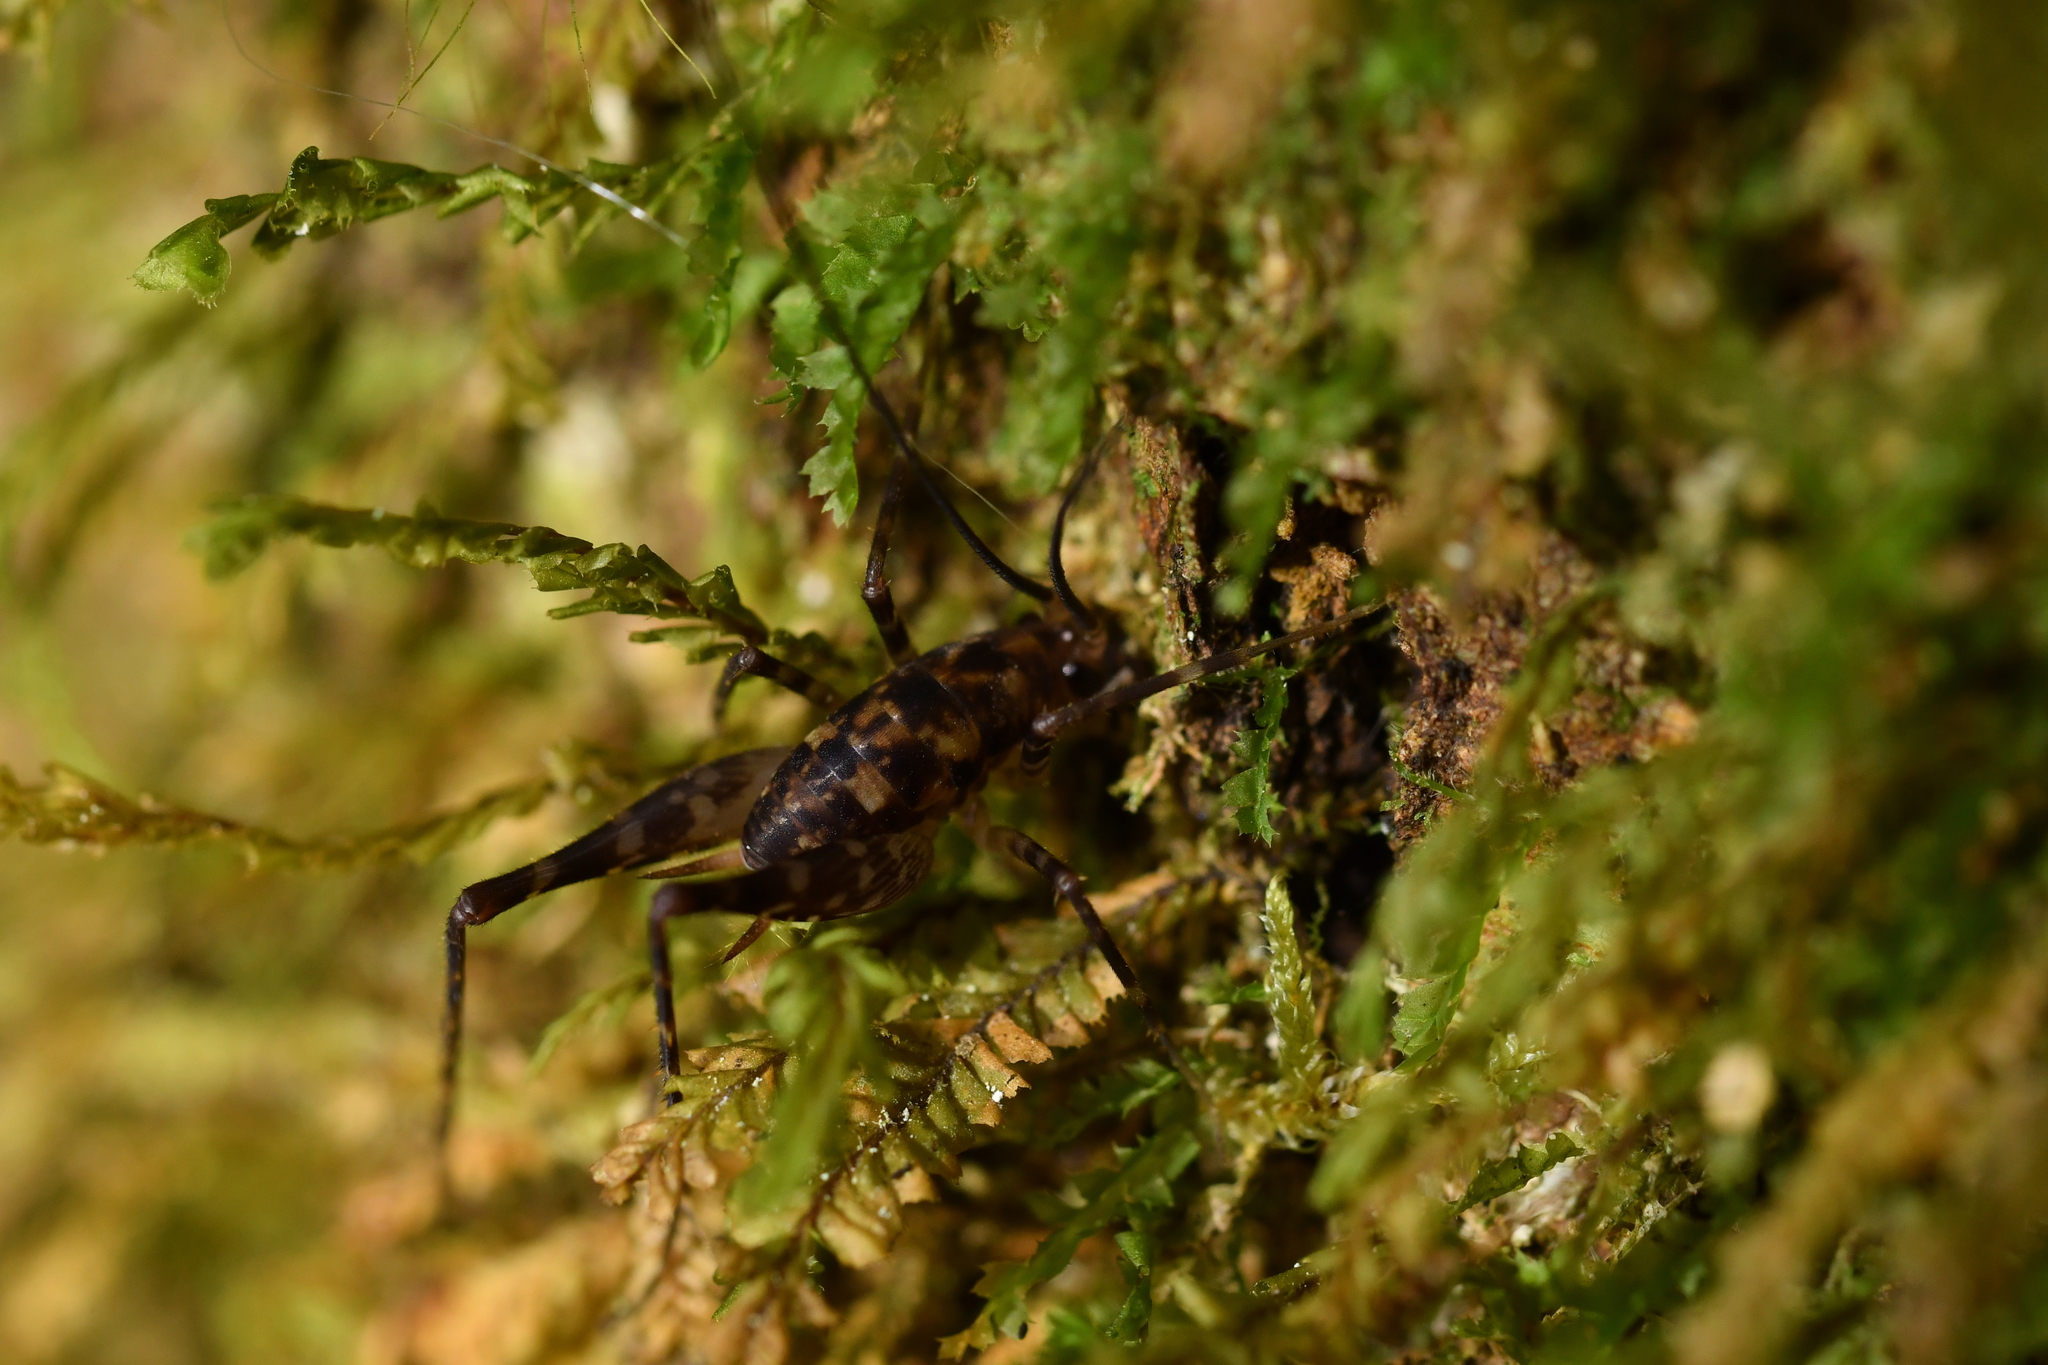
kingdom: Animalia
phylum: Arthropoda
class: Insecta
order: Orthoptera
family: Rhaphidophoridae
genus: Miotopus
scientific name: Miotopus richardsae
